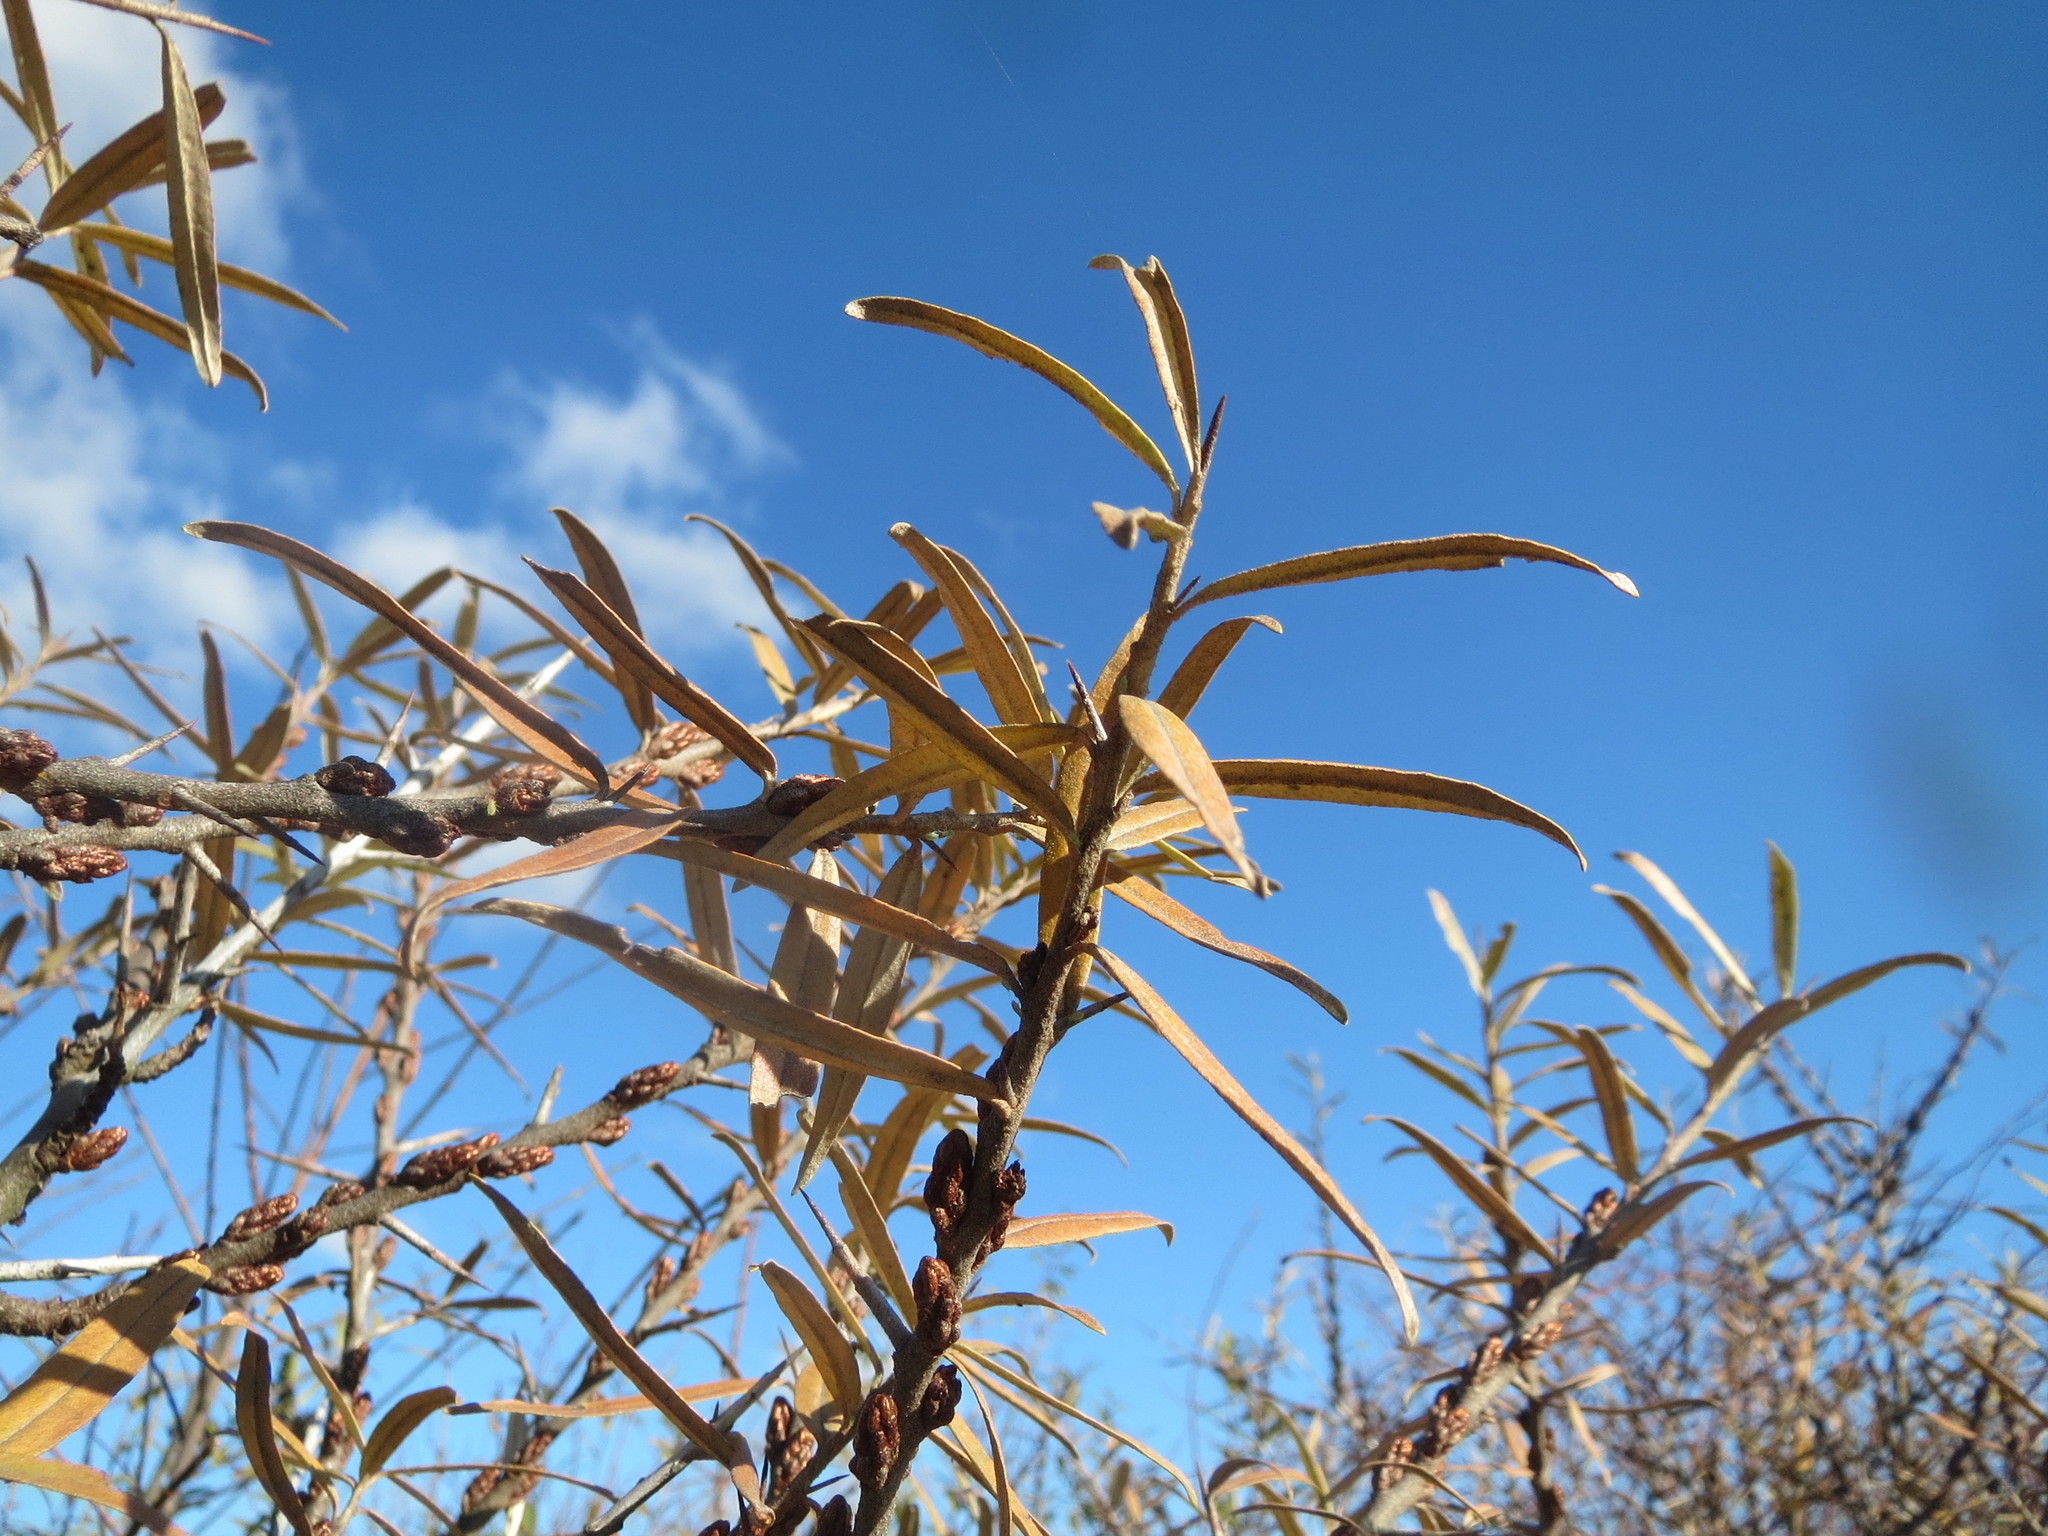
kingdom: Plantae
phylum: Tracheophyta
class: Magnoliopsida
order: Rosales
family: Elaeagnaceae
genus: Hippophae
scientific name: Hippophae rhamnoides
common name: Sea-buckthorn
